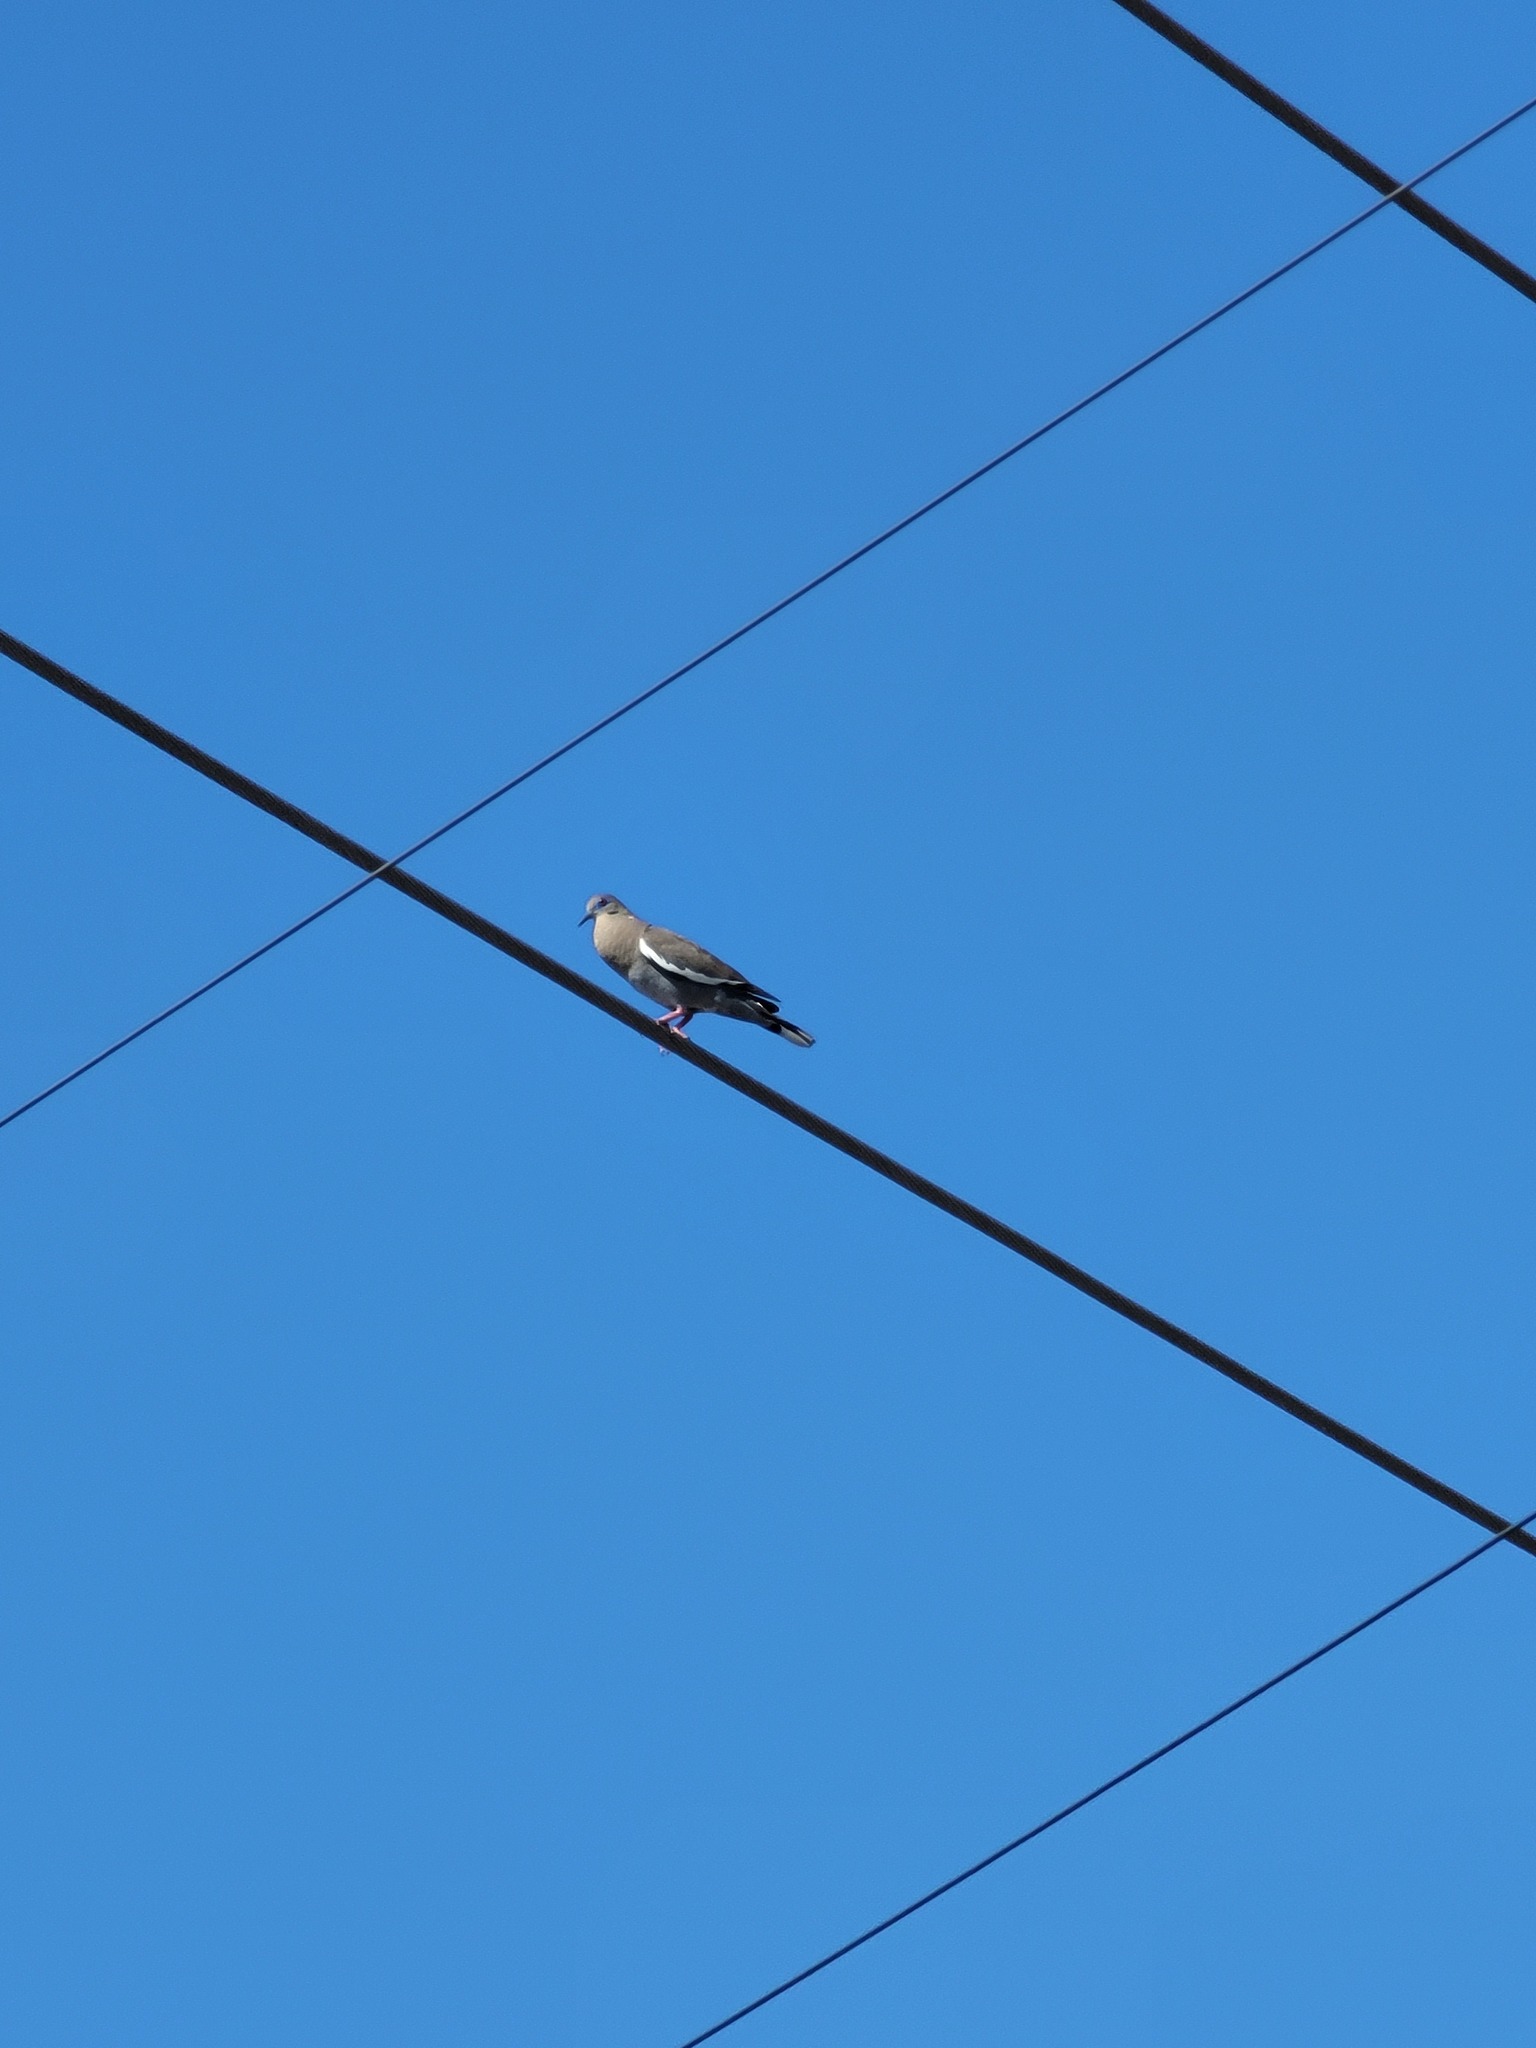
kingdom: Animalia
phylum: Chordata
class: Aves
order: Columbiformes
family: Columbidae
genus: Zenaida
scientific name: Zenaida asiatica
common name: White-winged dove
